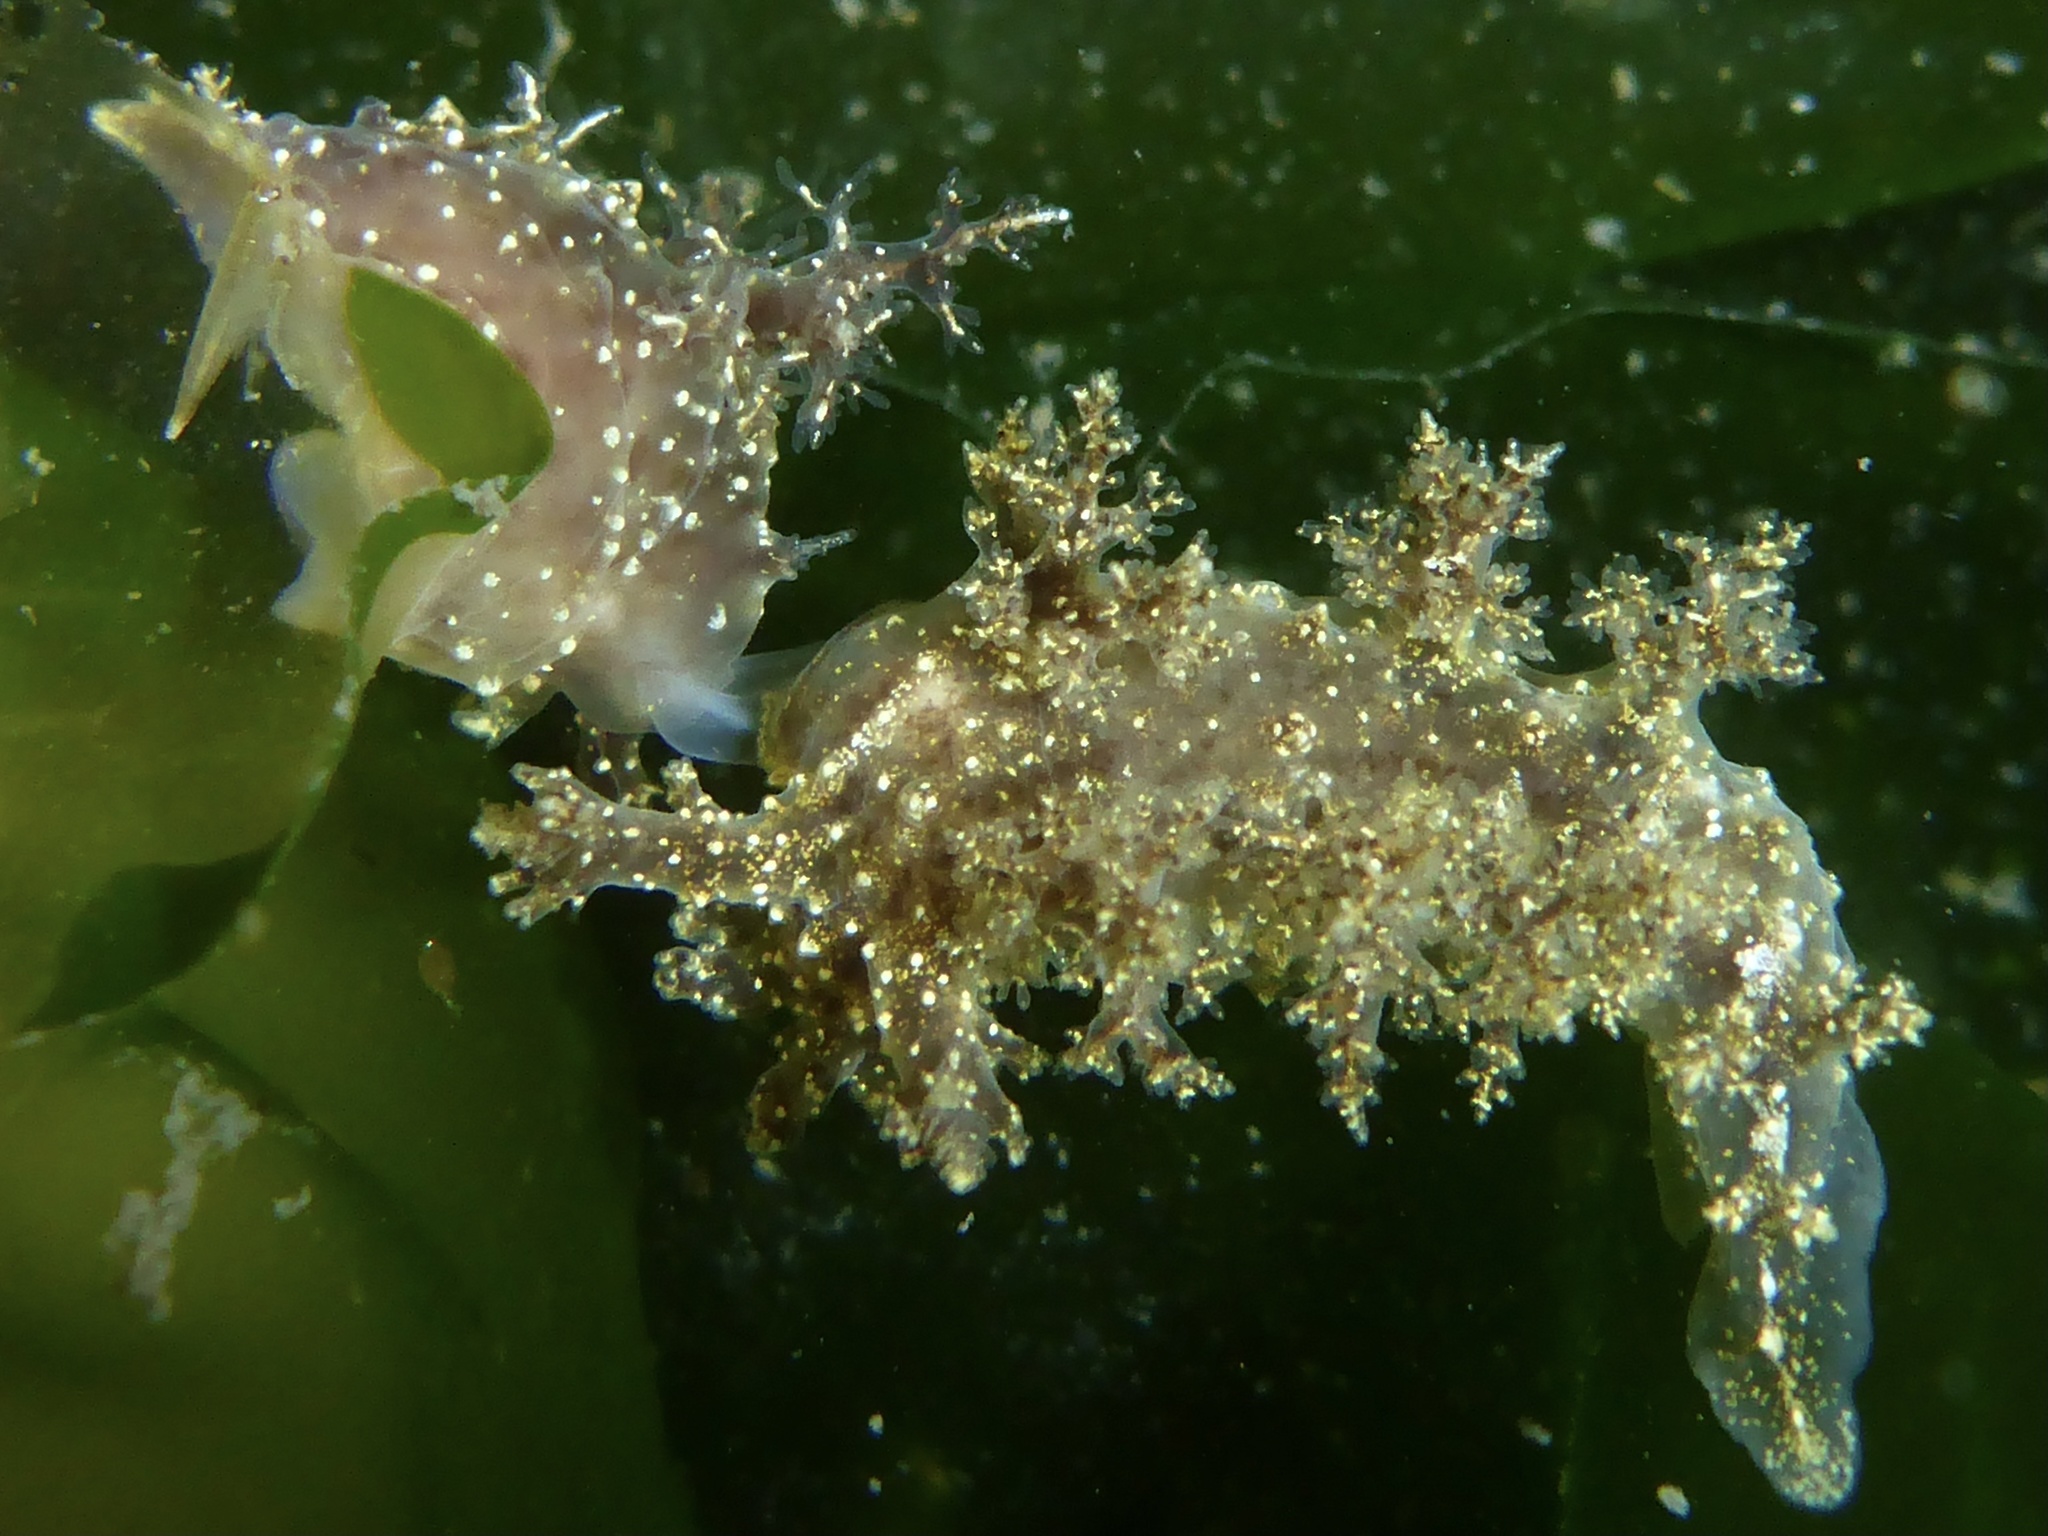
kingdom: Animalia
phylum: Mollusca
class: Gastropoda
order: Nudibranchia
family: Dendronotidae
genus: Dendronotus
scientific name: Dendronotus venustus
